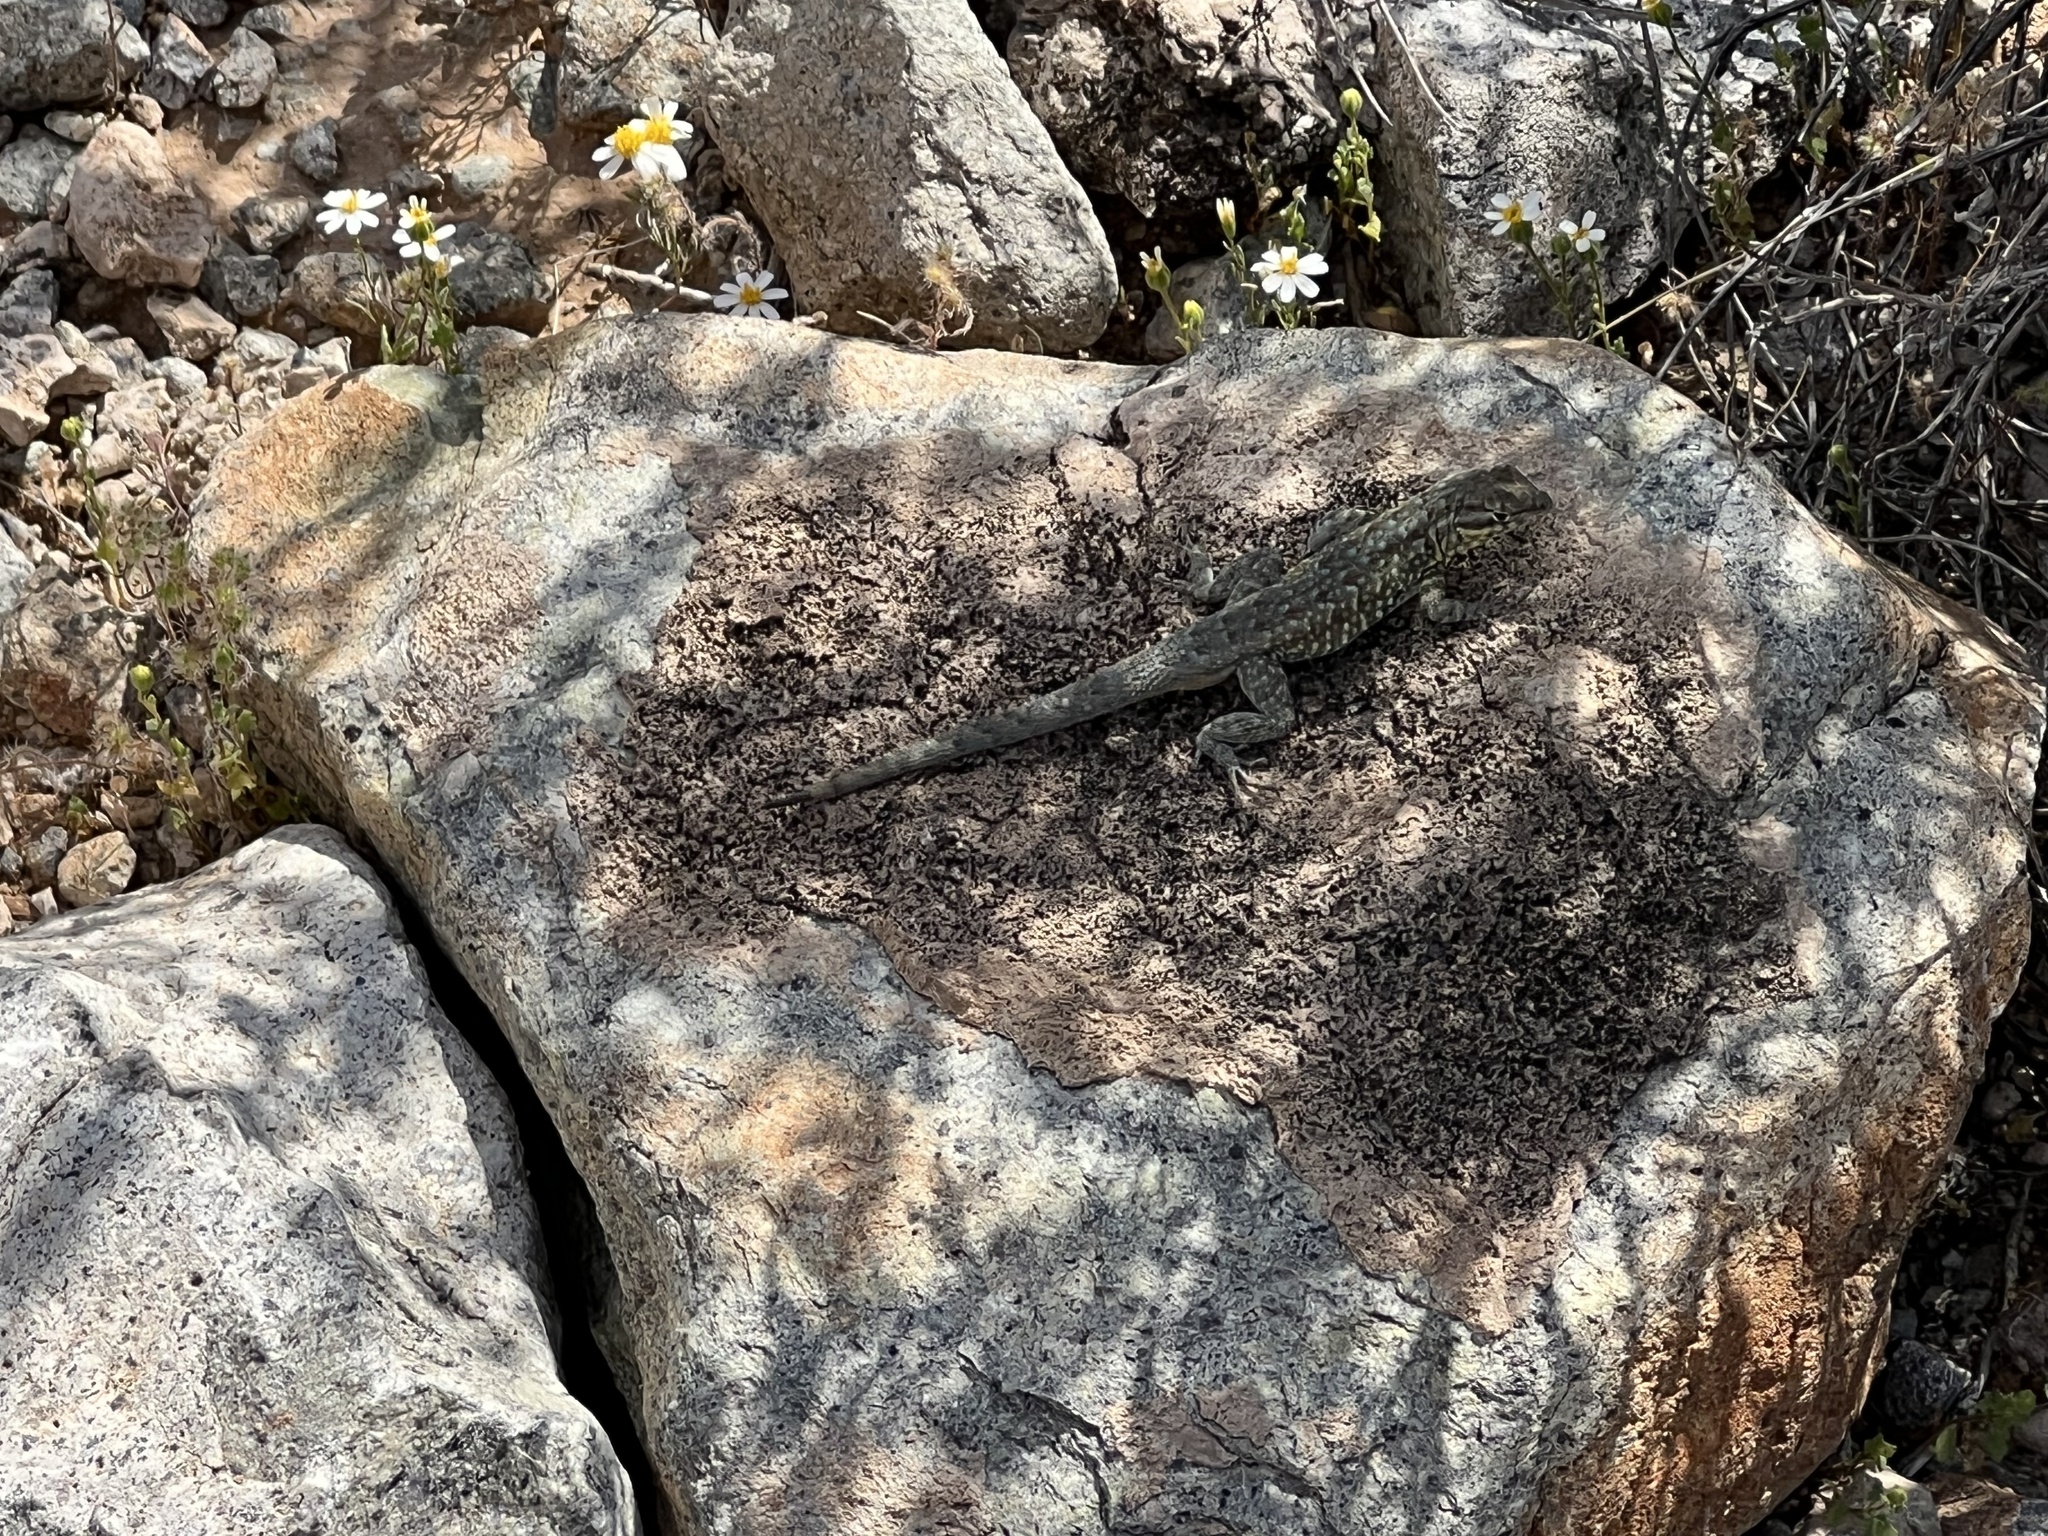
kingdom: Animalia
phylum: Chordata
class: Squamata
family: Phrynosomatidae
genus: Uta
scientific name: Uta stansburiana
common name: Side-blotched lizard
